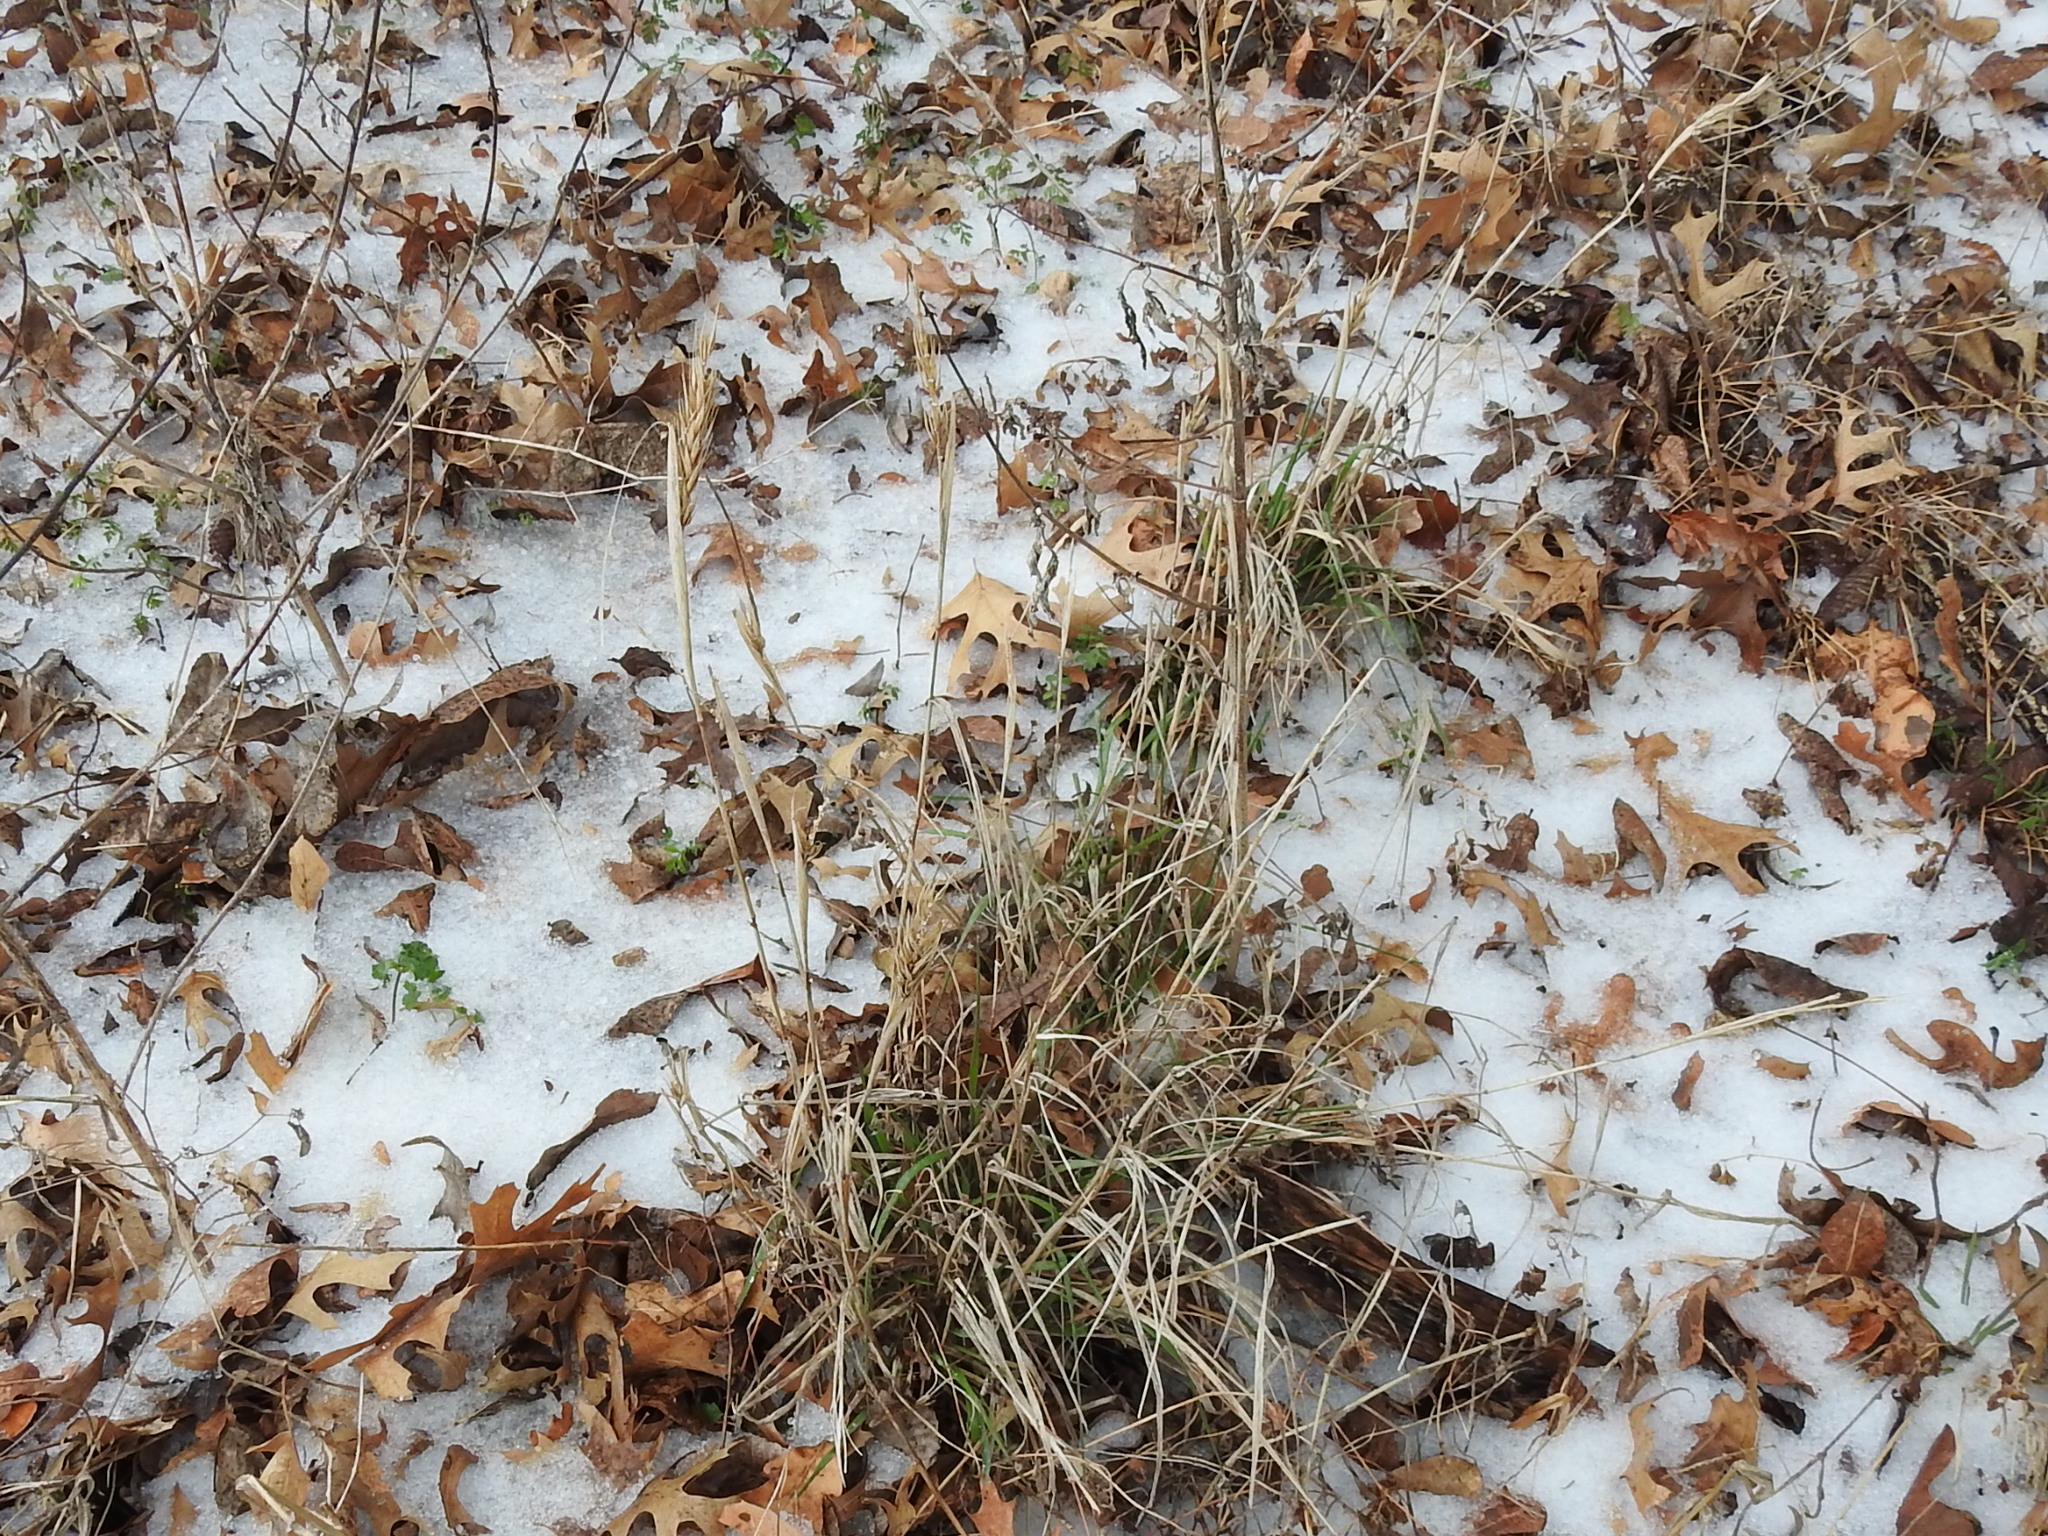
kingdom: Plantae
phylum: Tracheophyta
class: Liliopsida
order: Poales
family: Poaceae
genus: Elymus
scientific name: Elymus virginicus
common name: Common eastern wildrye
